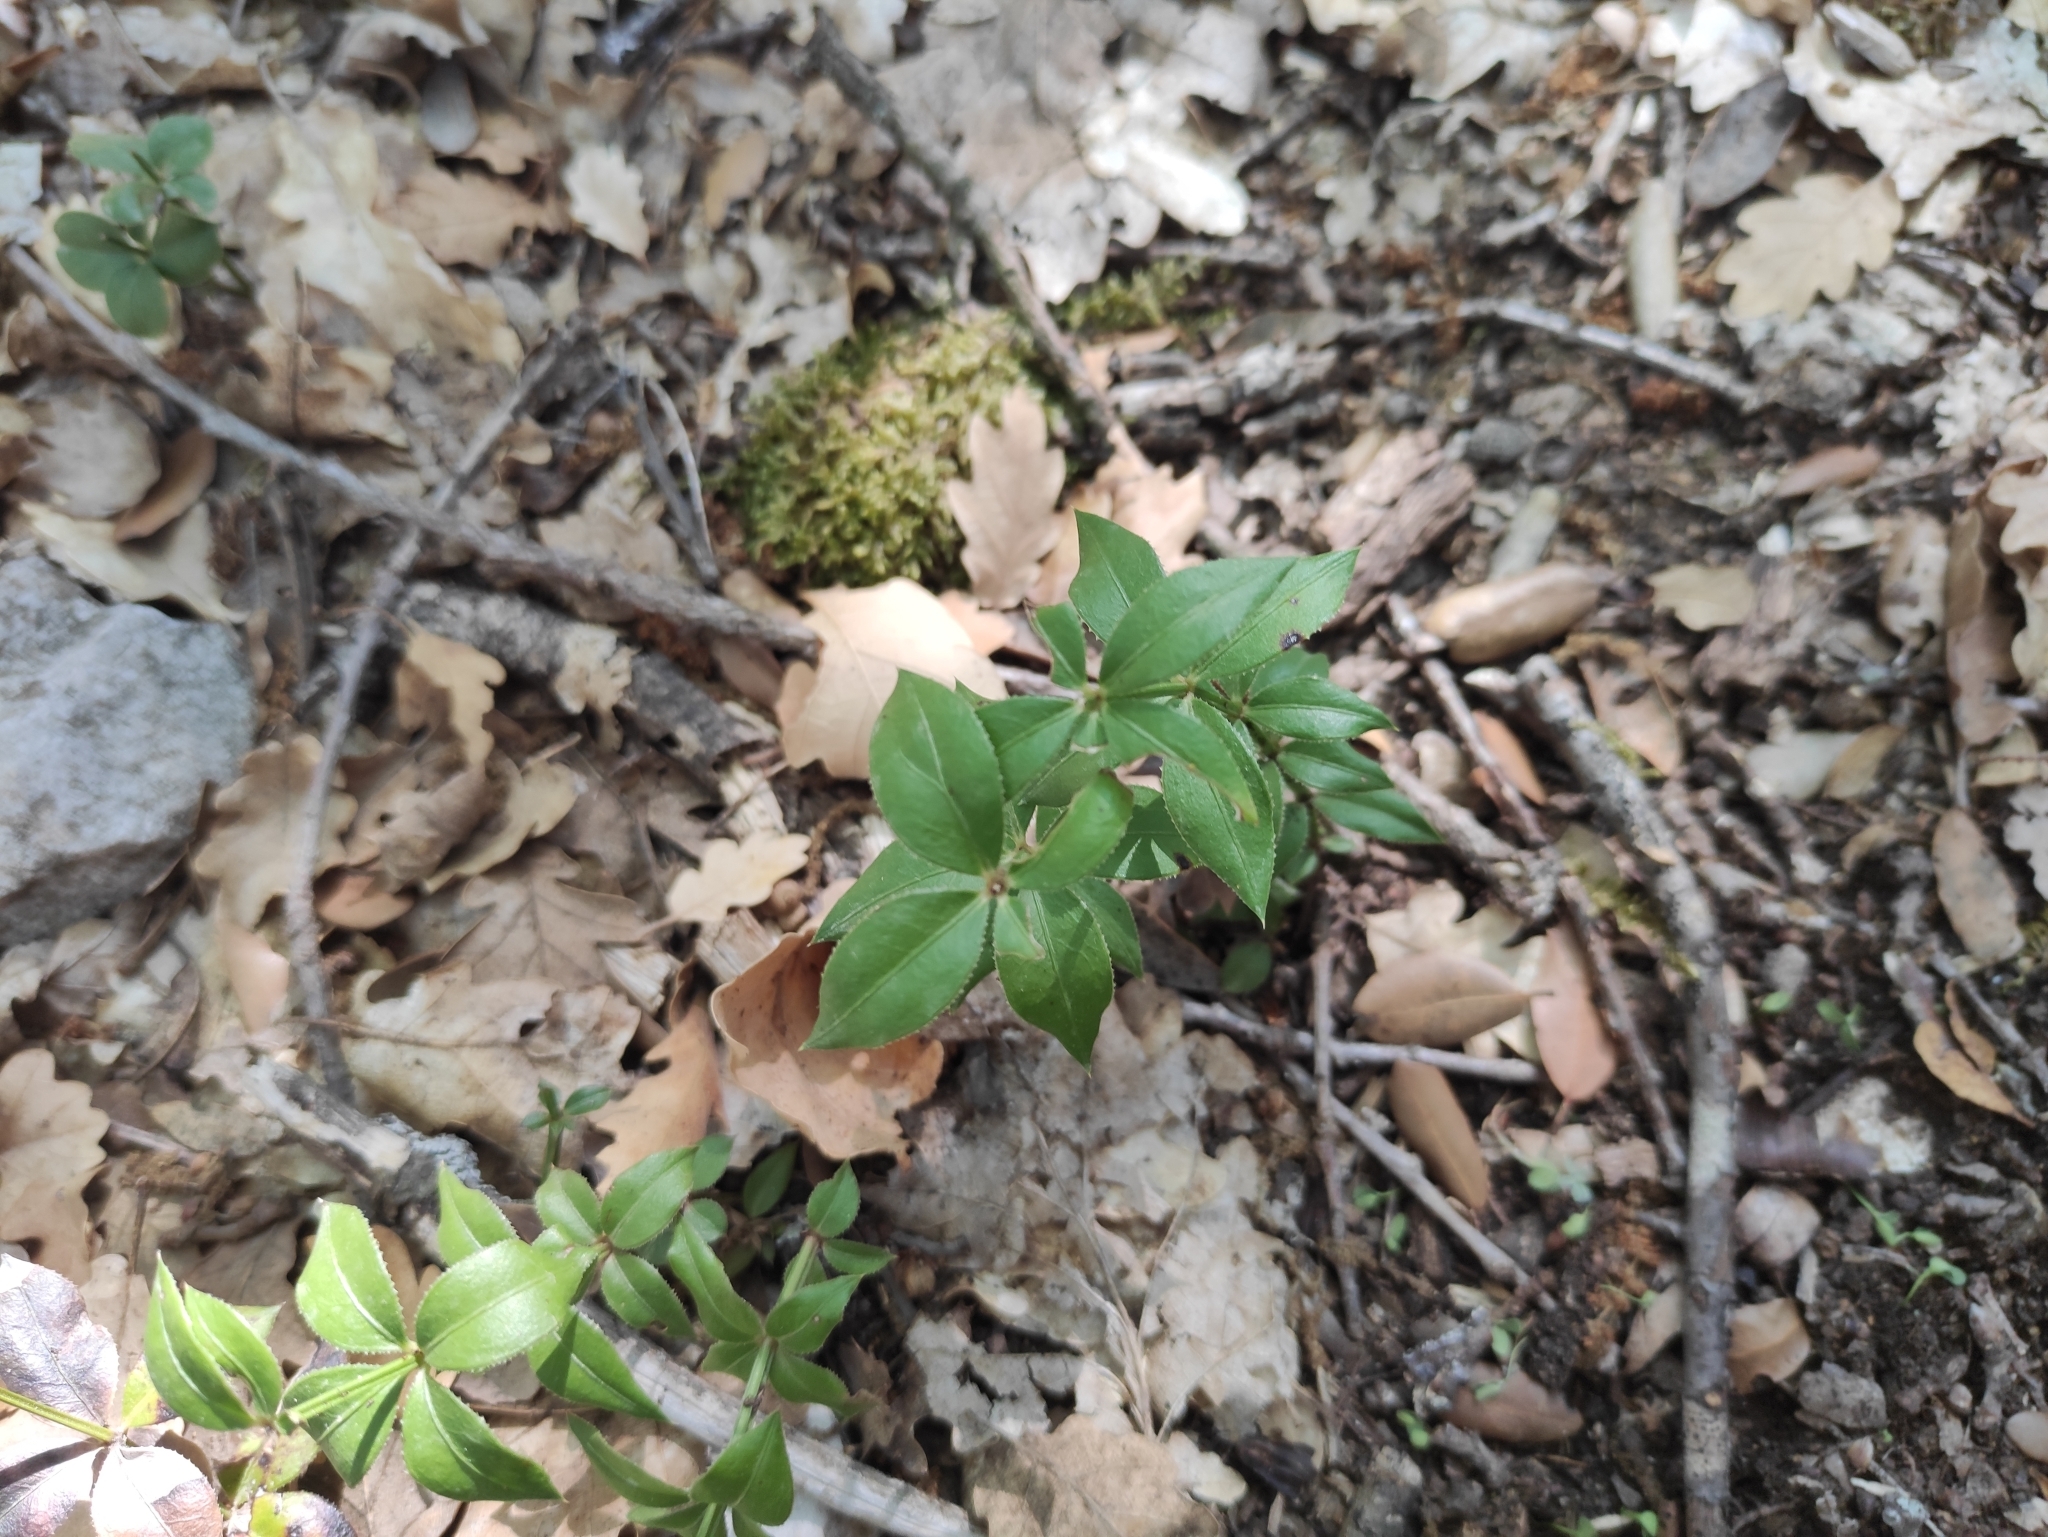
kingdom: Plantae
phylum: Tracheophyta
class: Magnoliopsida
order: Gentianales
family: Rubiaceae
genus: Rubia
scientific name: Rubia peregrina
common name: Wild madder
